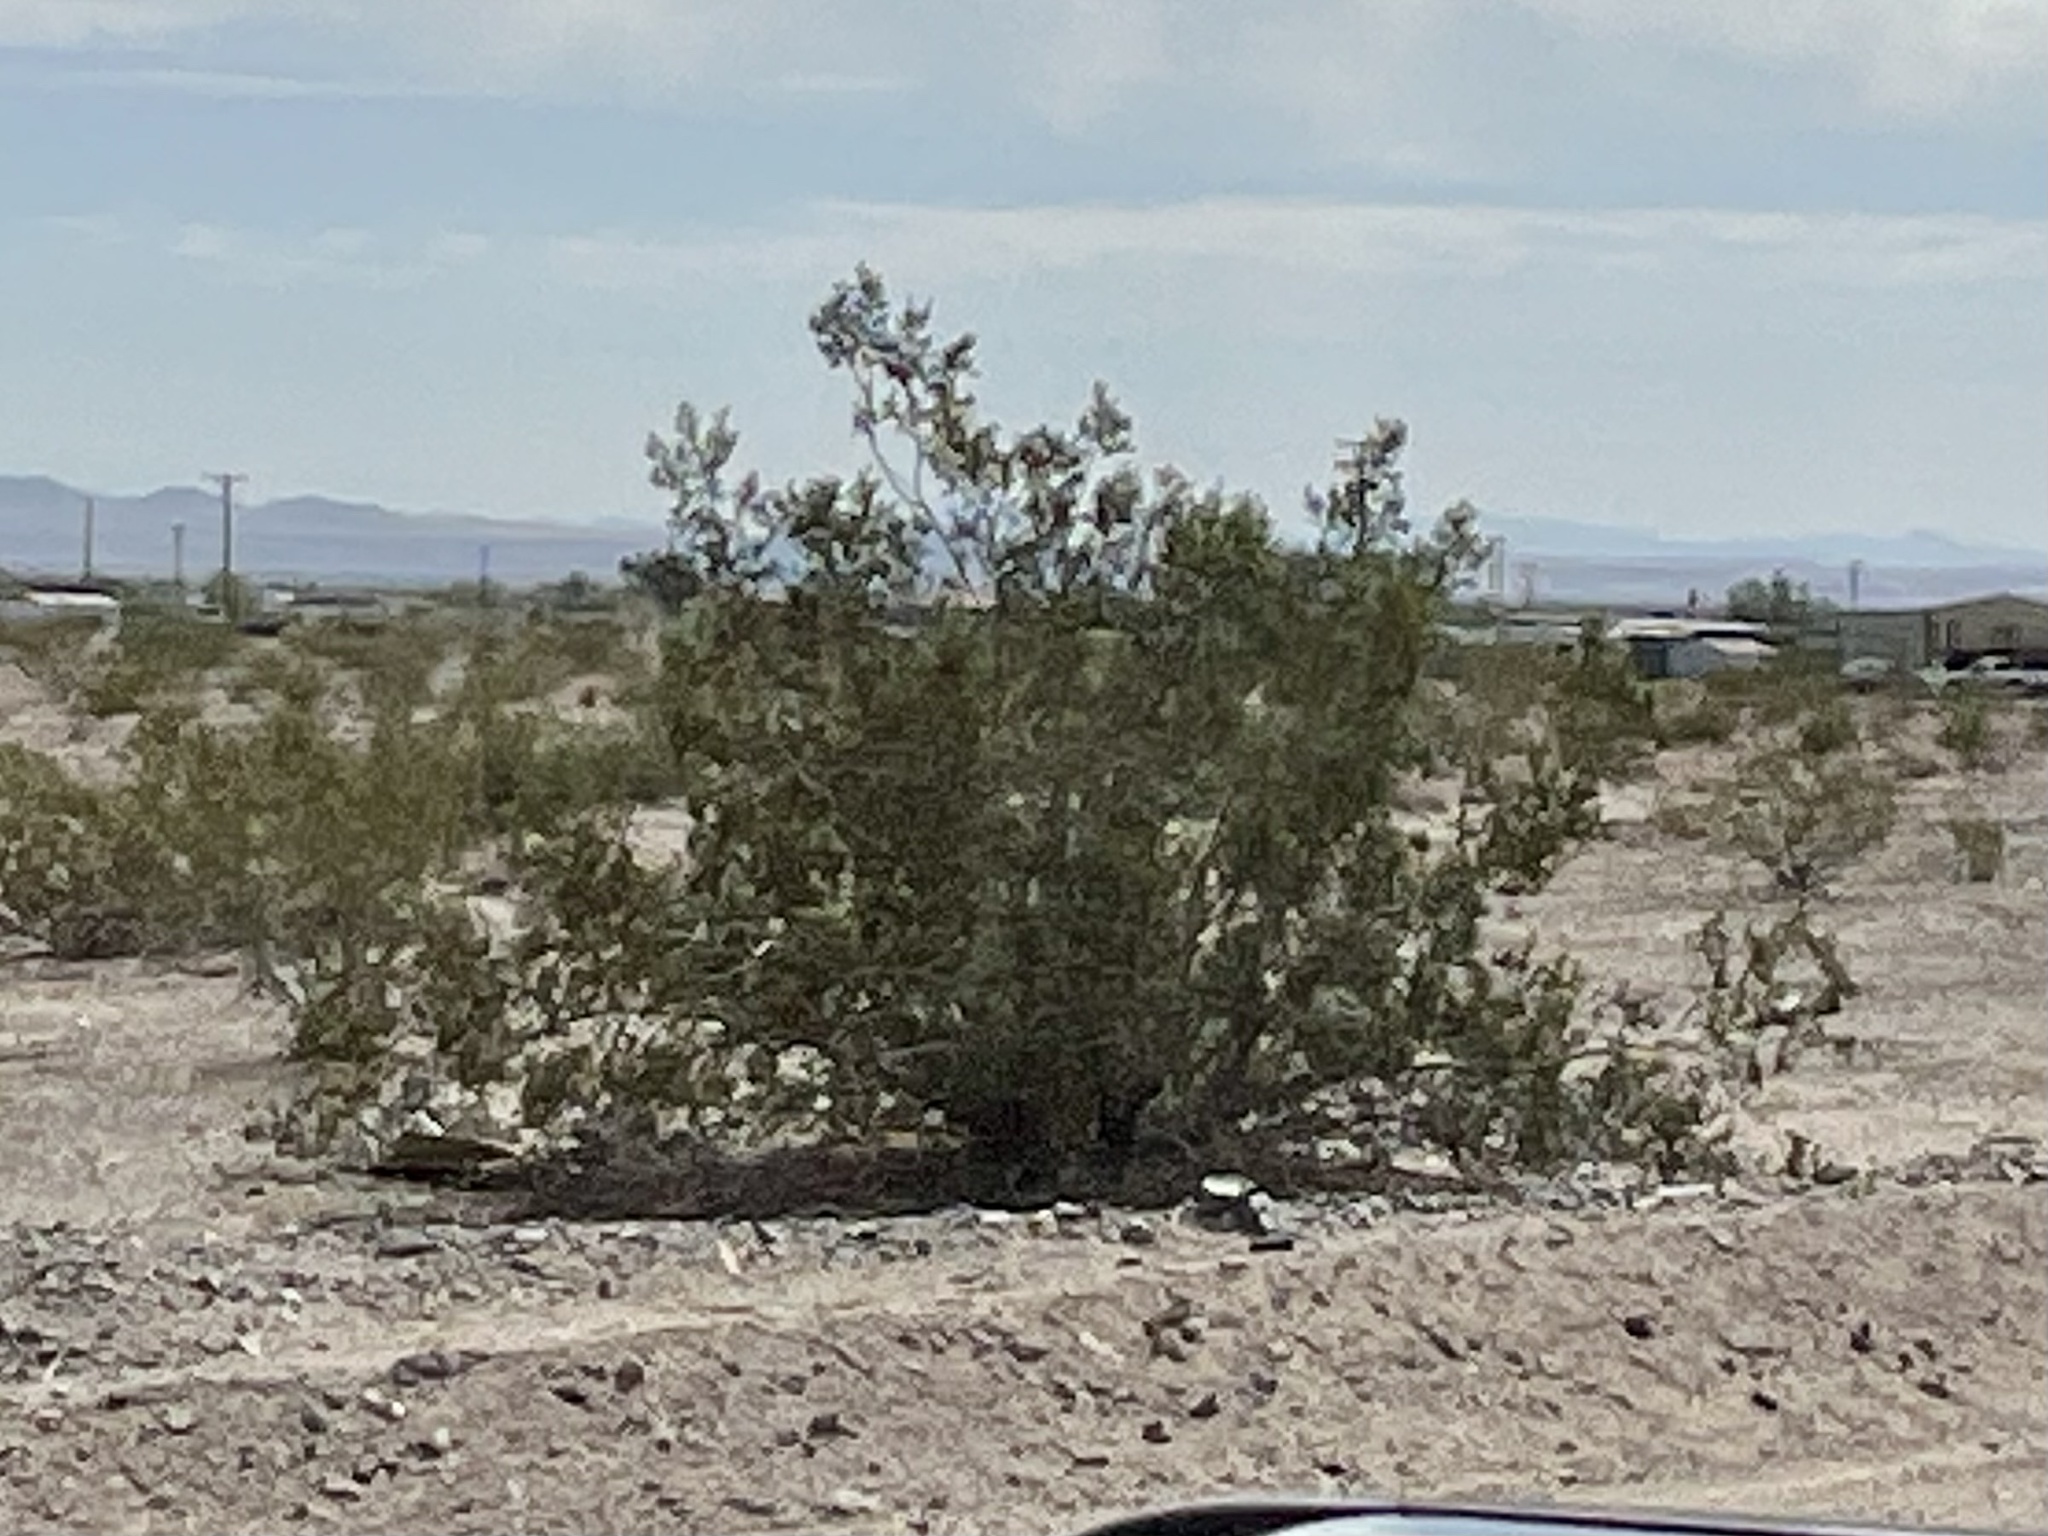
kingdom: Plantae
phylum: Tracheophyta
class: Magnoliopsida
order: Zygophyllales
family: Zygophyllaceae
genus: Larrea
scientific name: Larrea tridentata
